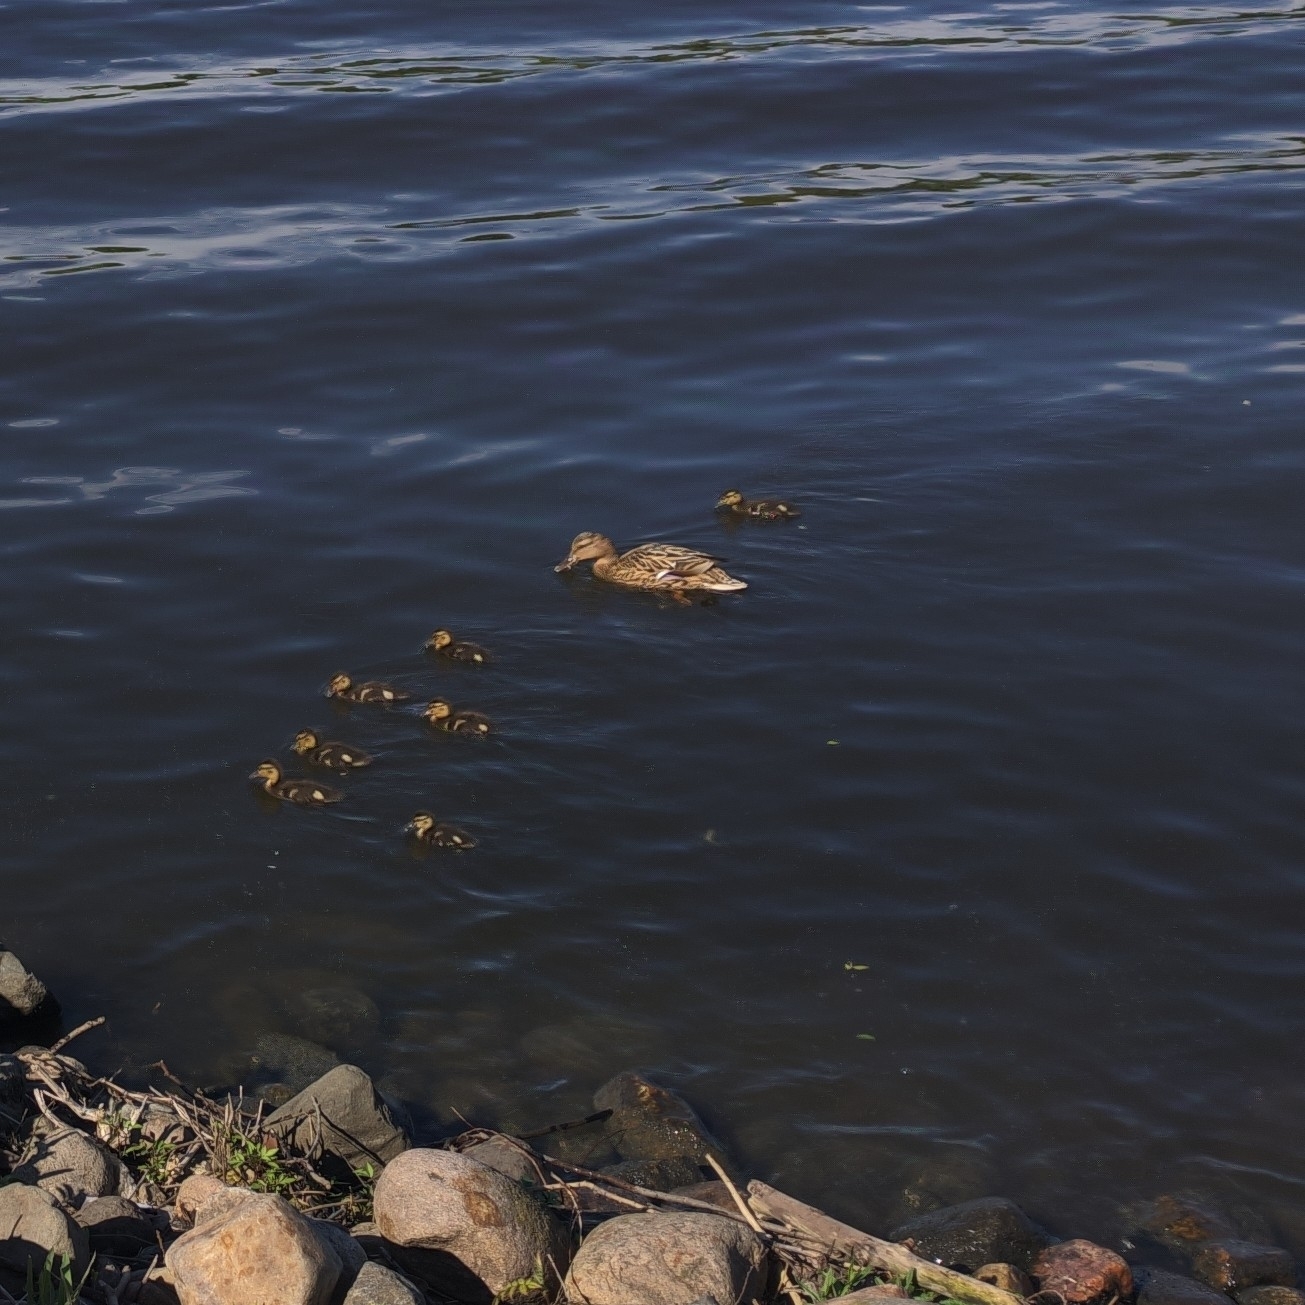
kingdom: Animalia
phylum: Chordata
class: Aves
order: Anseriformes
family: Anatidae
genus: Anas
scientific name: Anas platyrhynchos
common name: Mallard
